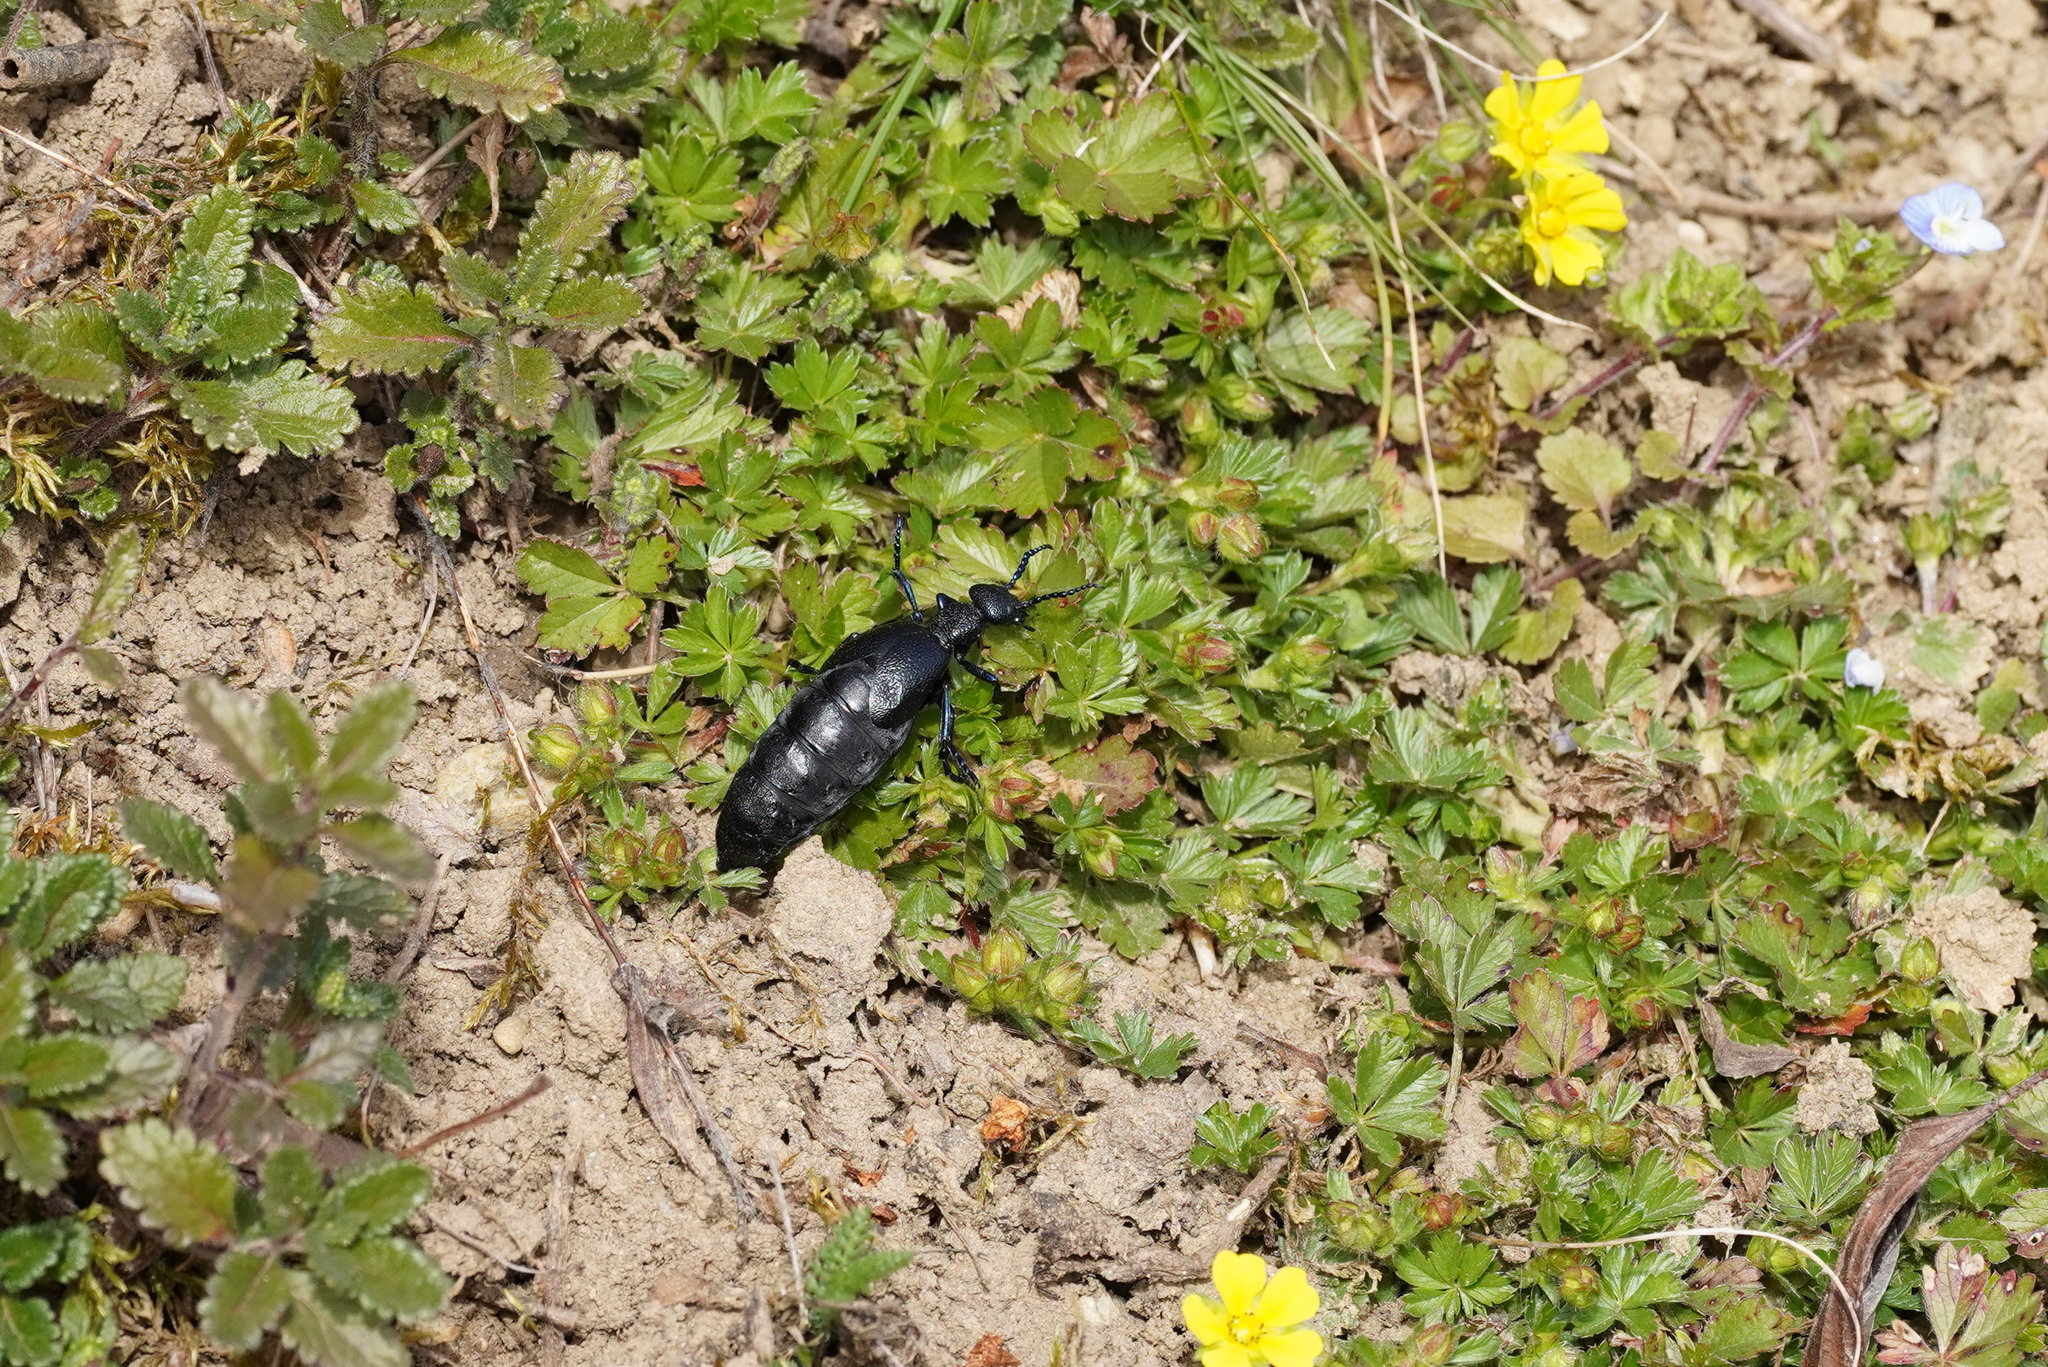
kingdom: Animalia
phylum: Arthropoda
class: Insecta
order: Coleoptera
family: Meloidae
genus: Meloe
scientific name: Meloe proscarabaeus
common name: Black oil-beetle
